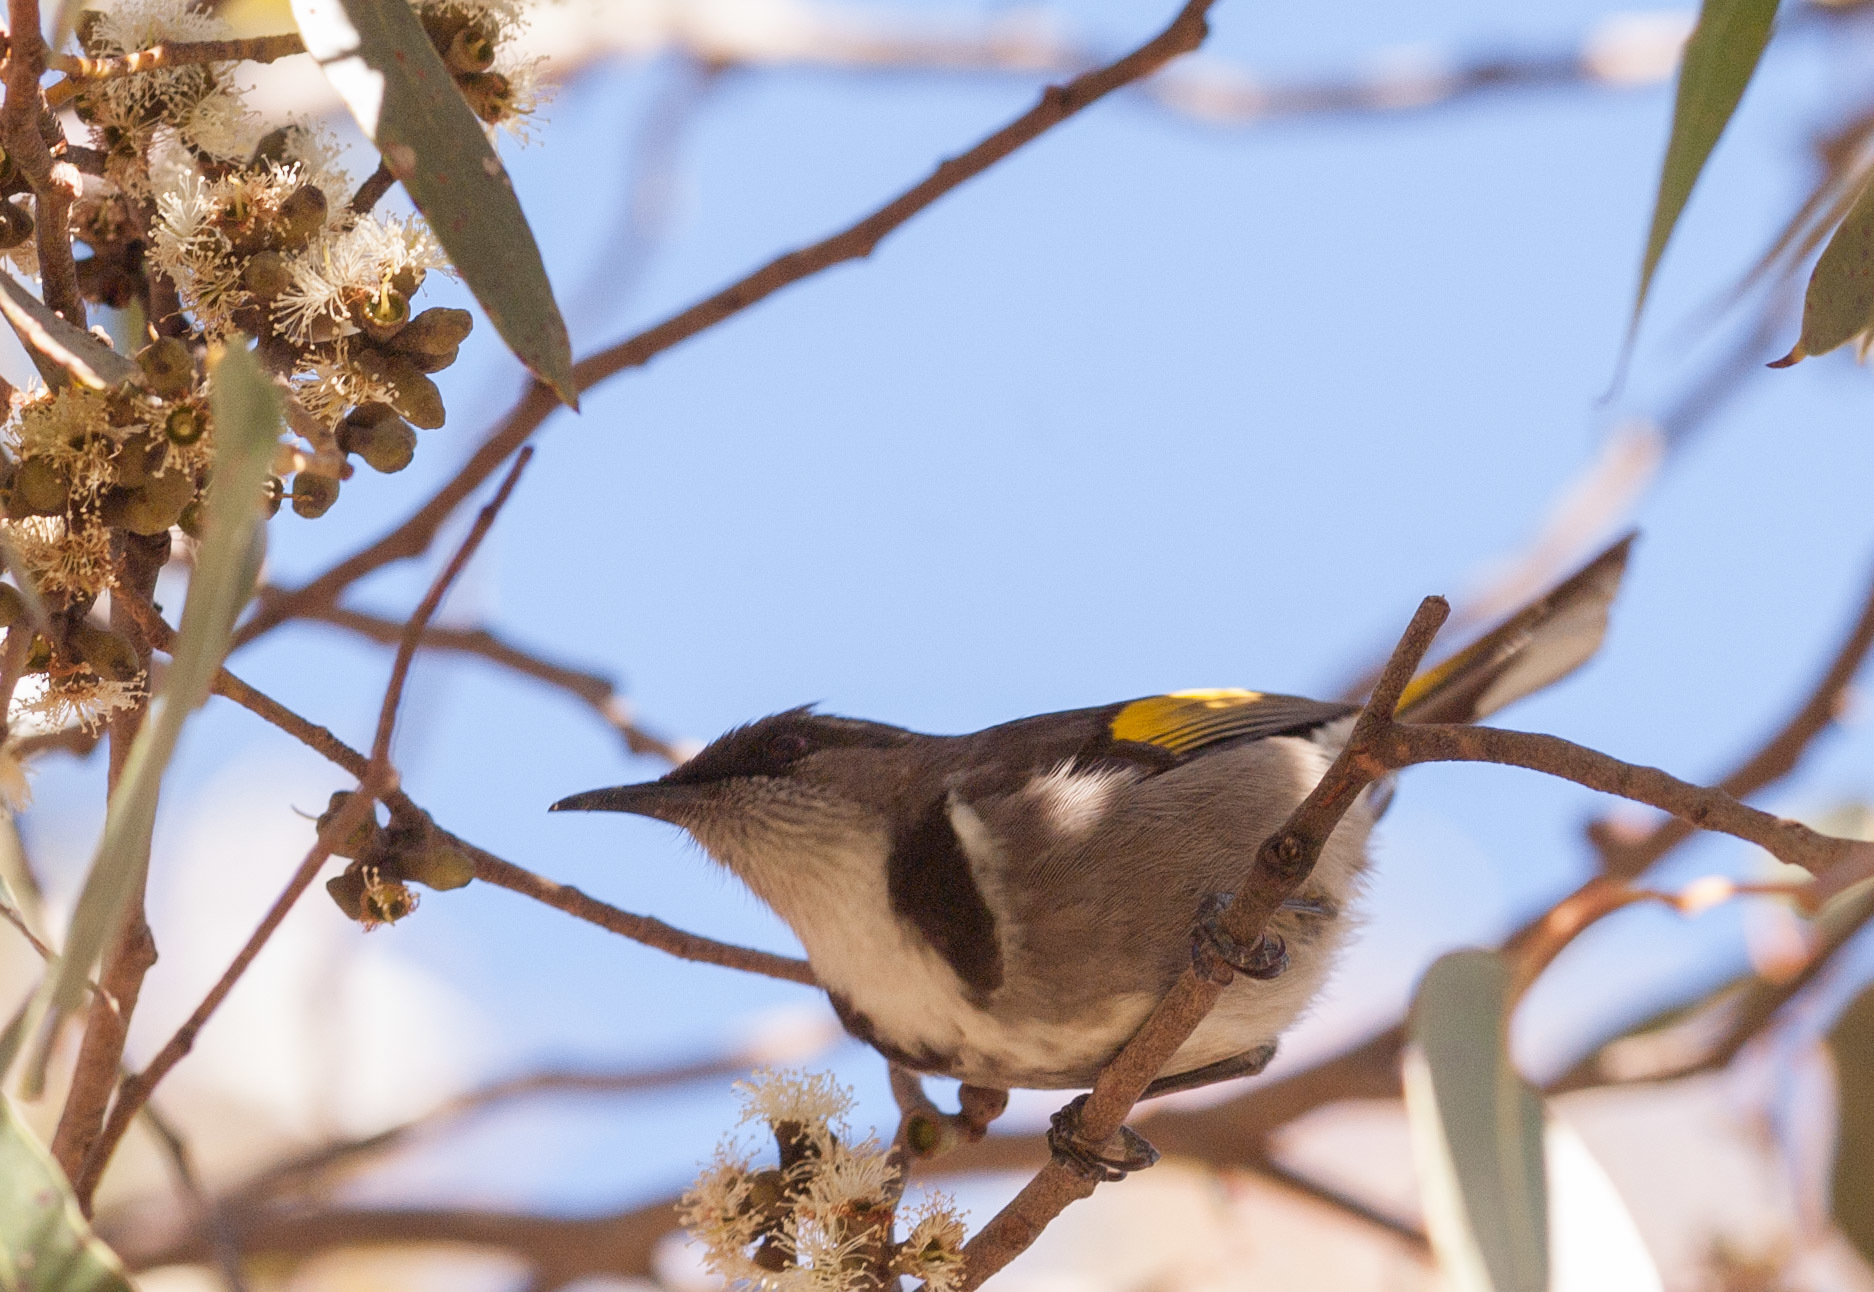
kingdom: Animalia
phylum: Chordata
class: Aves
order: Passeriformes
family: Meliphagidae
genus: Phylidonyris
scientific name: Phylidonyris pyrrhopterus
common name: Crescent honeyeater
